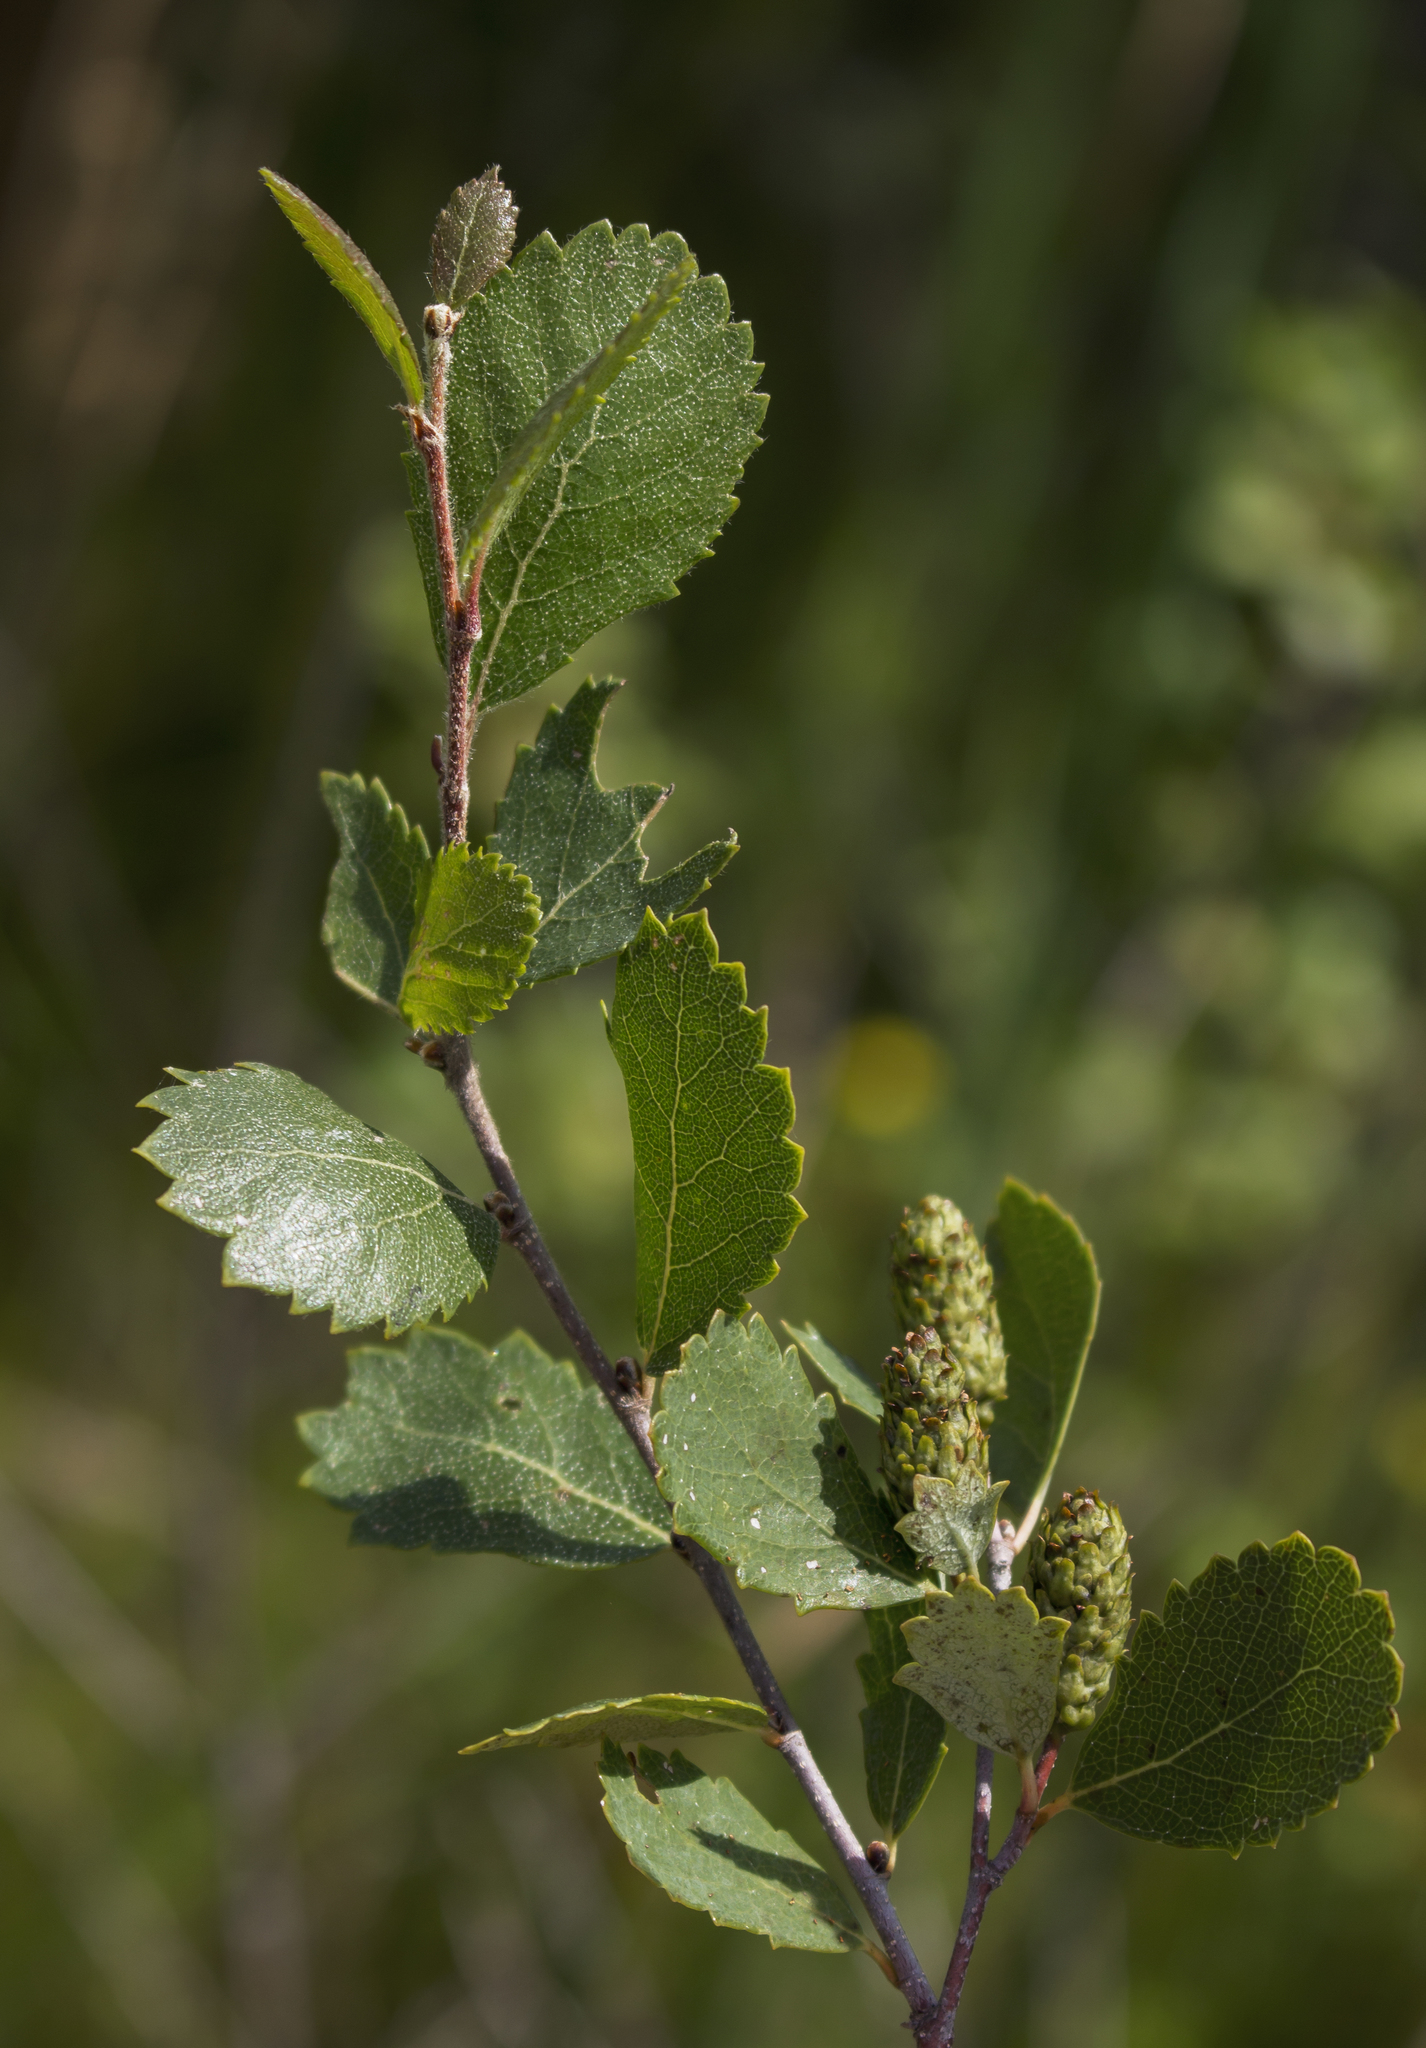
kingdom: Plantae
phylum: Tracheophyta
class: Magnoliopsida
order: Fagales
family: Betulaceae
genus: Betula
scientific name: Betula pumila
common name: Bog birch
